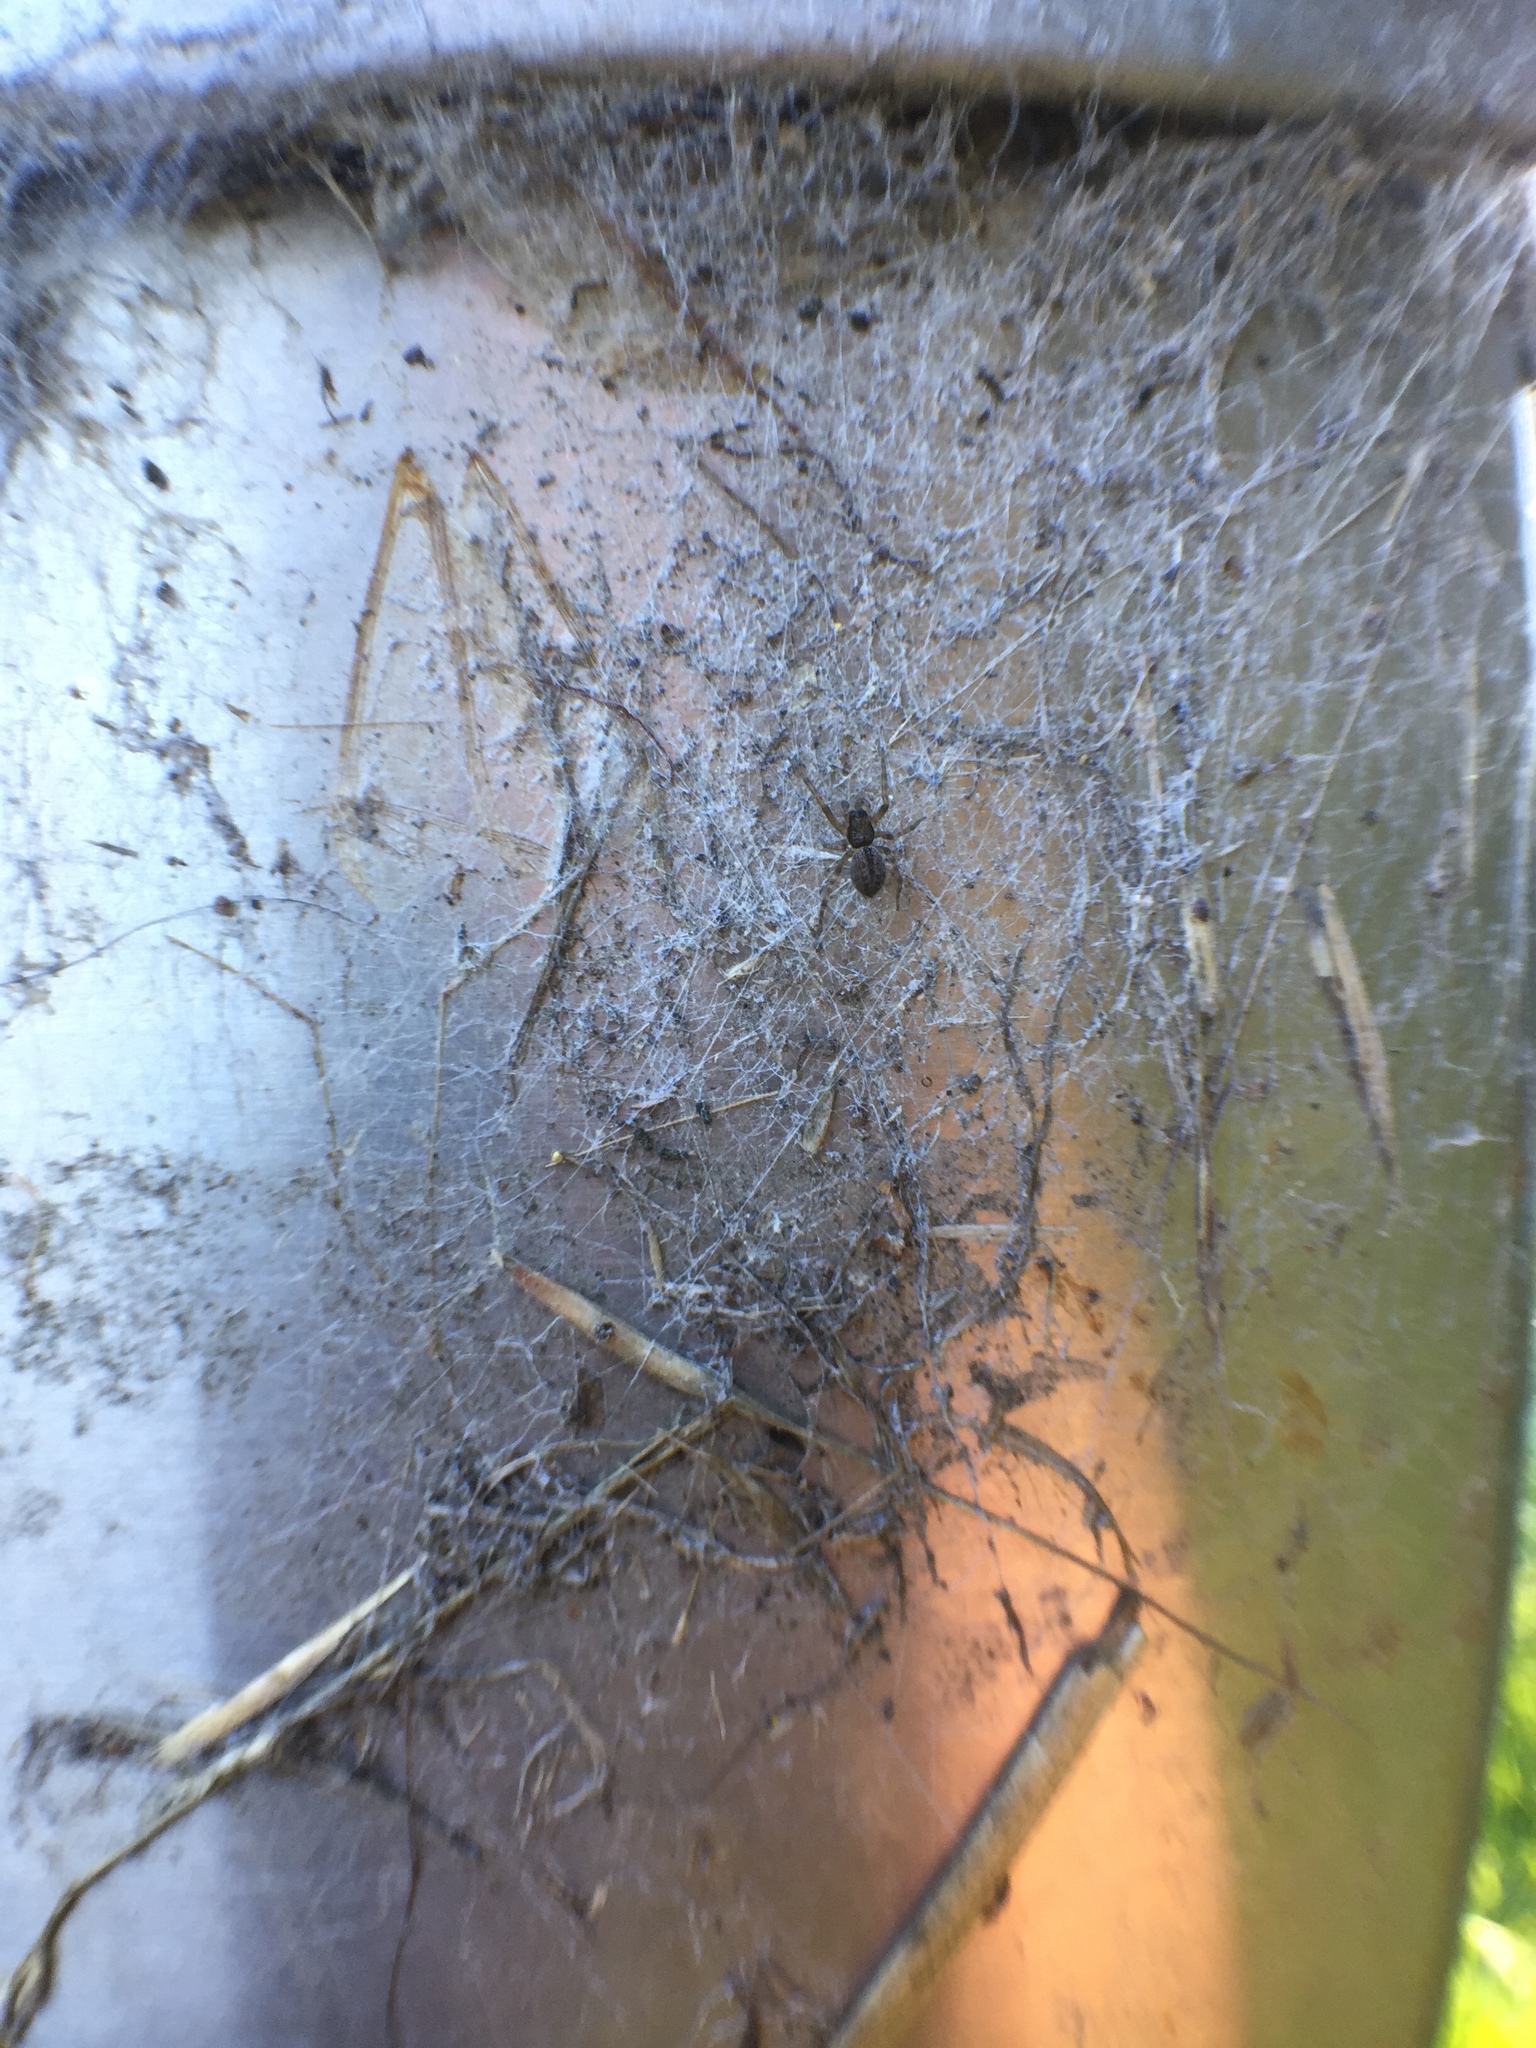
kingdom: Animalia
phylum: Arthropoda
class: Arachnida
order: Araneae
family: Desidae
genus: Badumna
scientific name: Badumna longinqua
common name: Gray house spider
